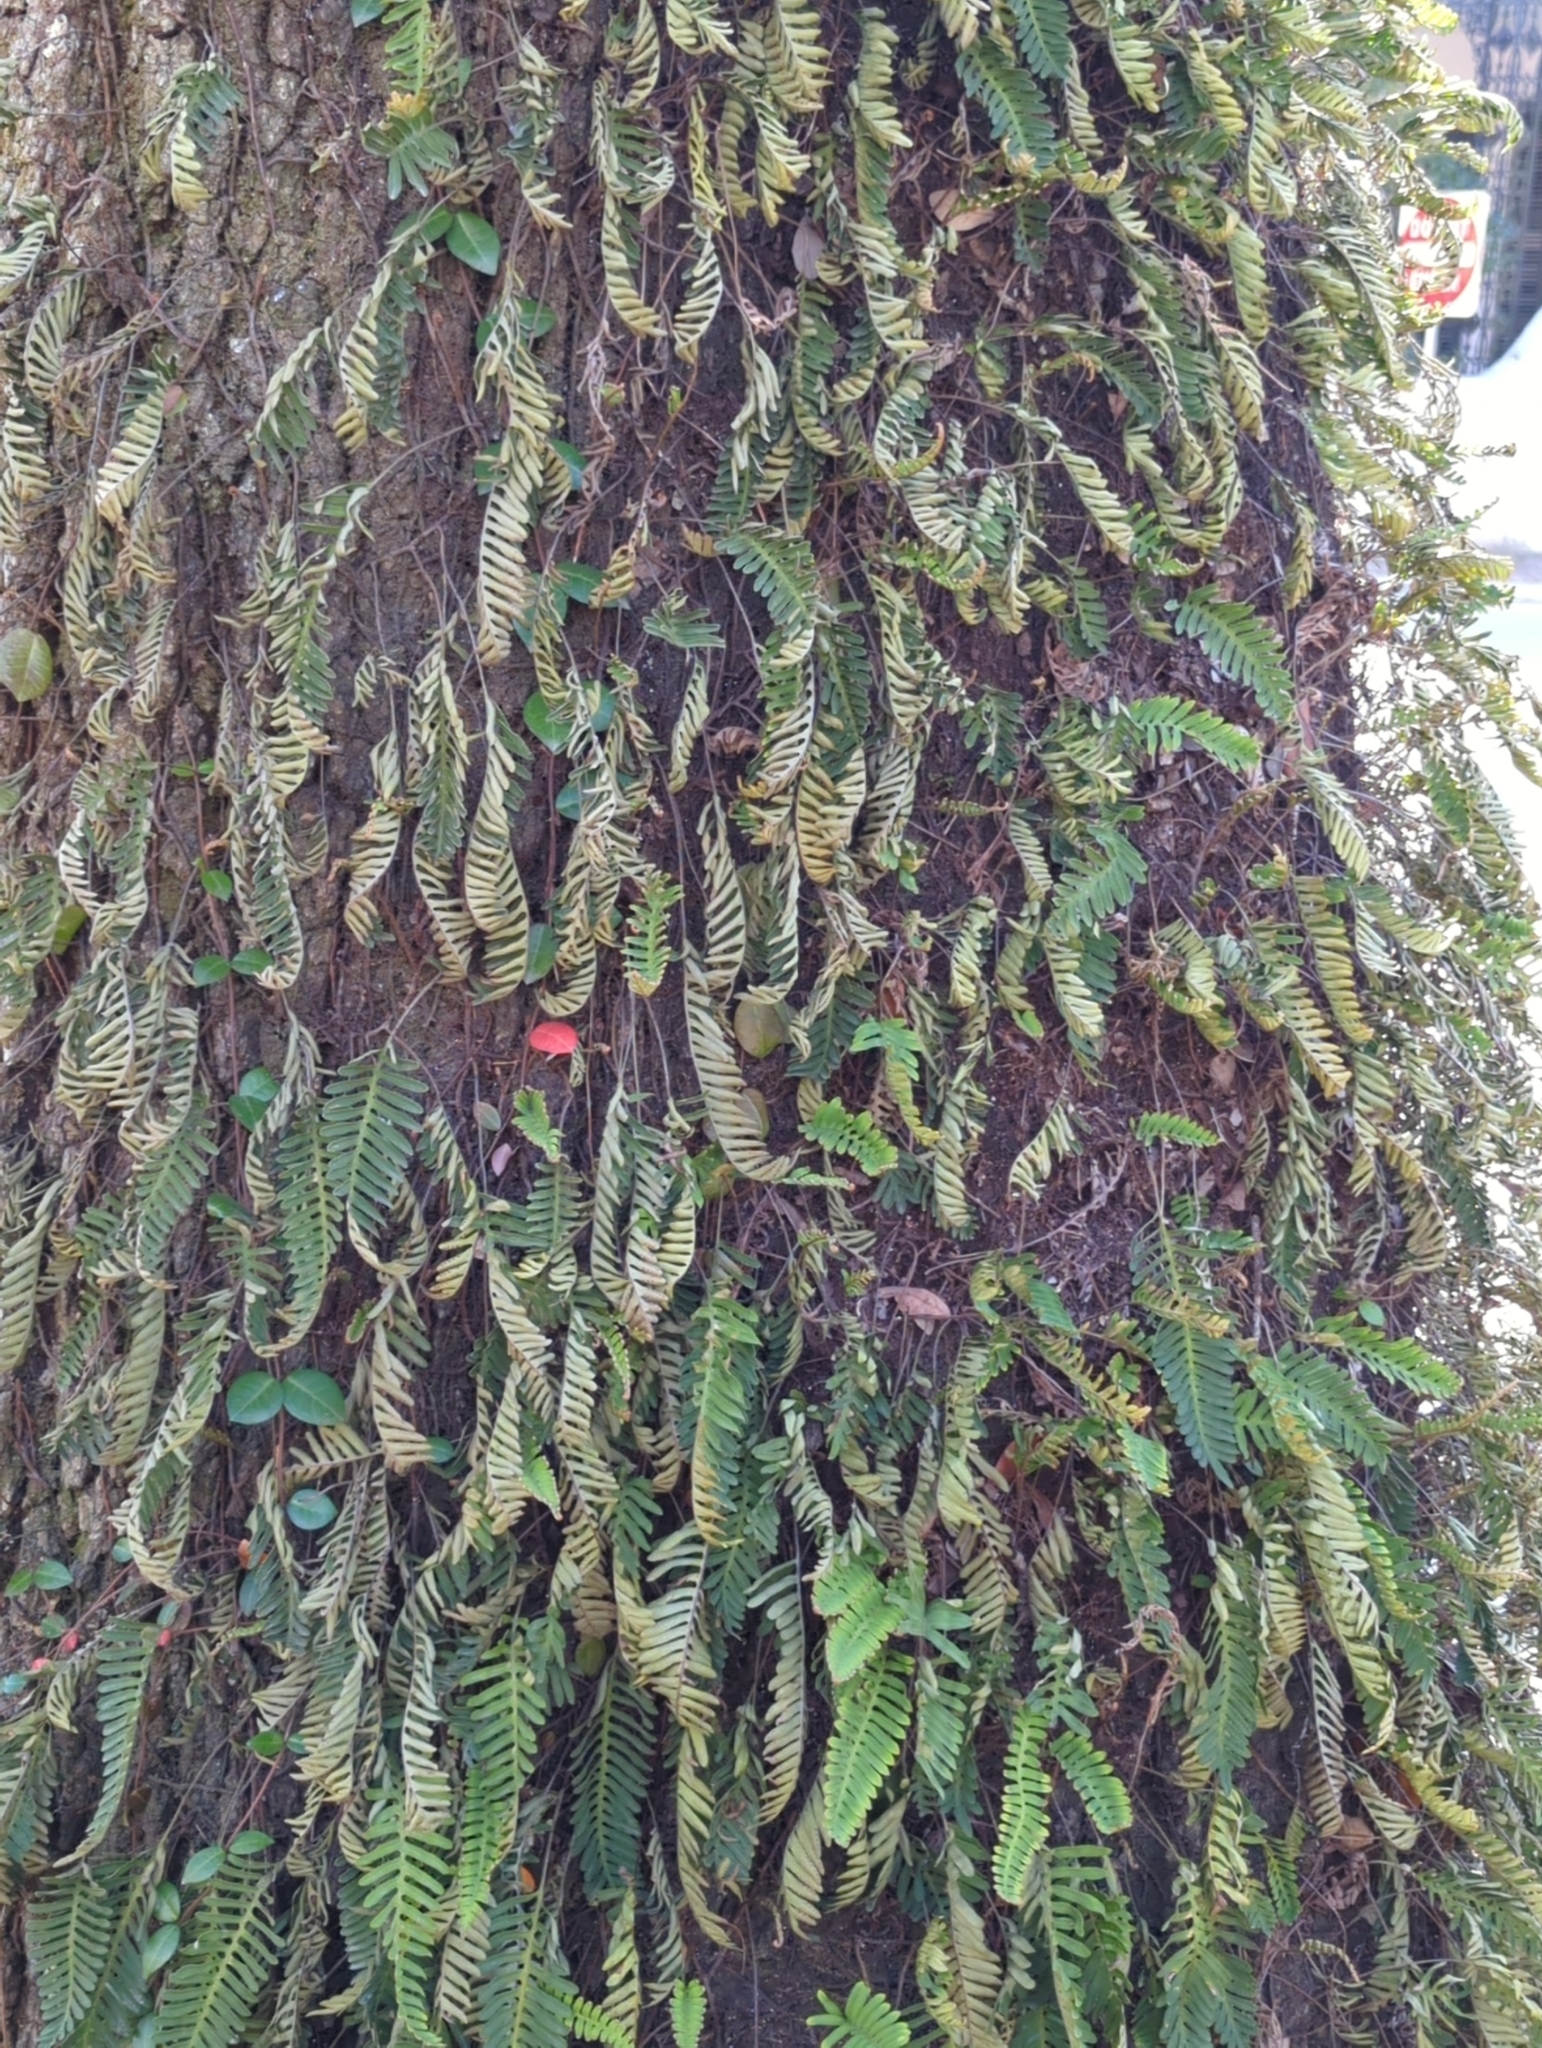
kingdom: Plantae
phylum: Tracheophyta
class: Polypodiopsida
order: Polypodiales
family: Polypodiaceae
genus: Pleopeltis
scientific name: Pleopeltis michauxiana
